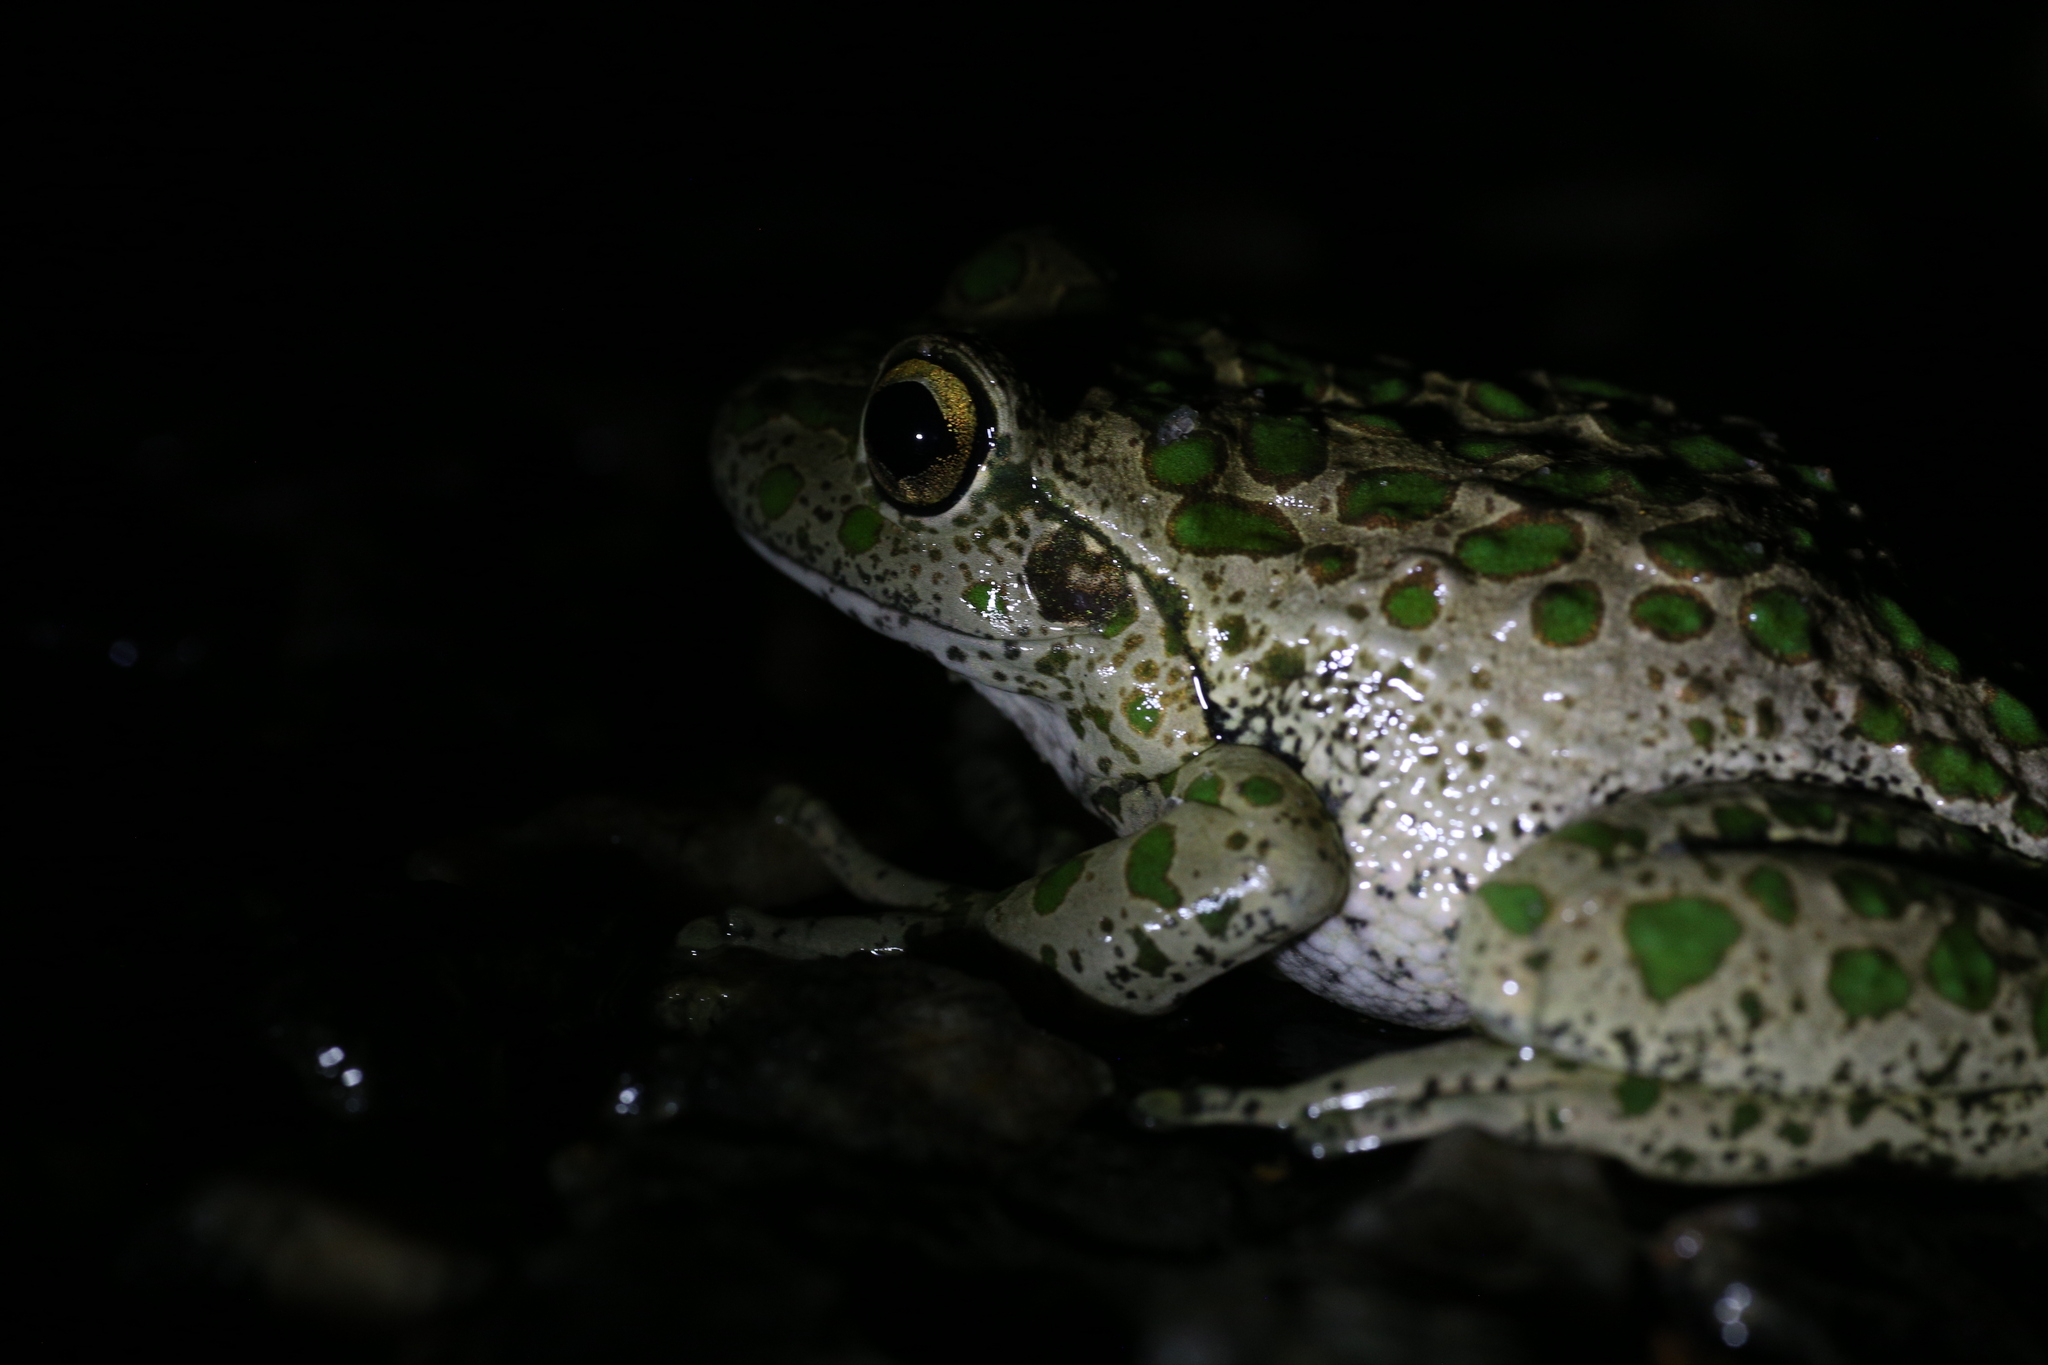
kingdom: Animalia
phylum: Chordata
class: Amphibia
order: Anura
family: Pelodryadidae
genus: Ranoidea
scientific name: Ranoidea cyclorhynchus
